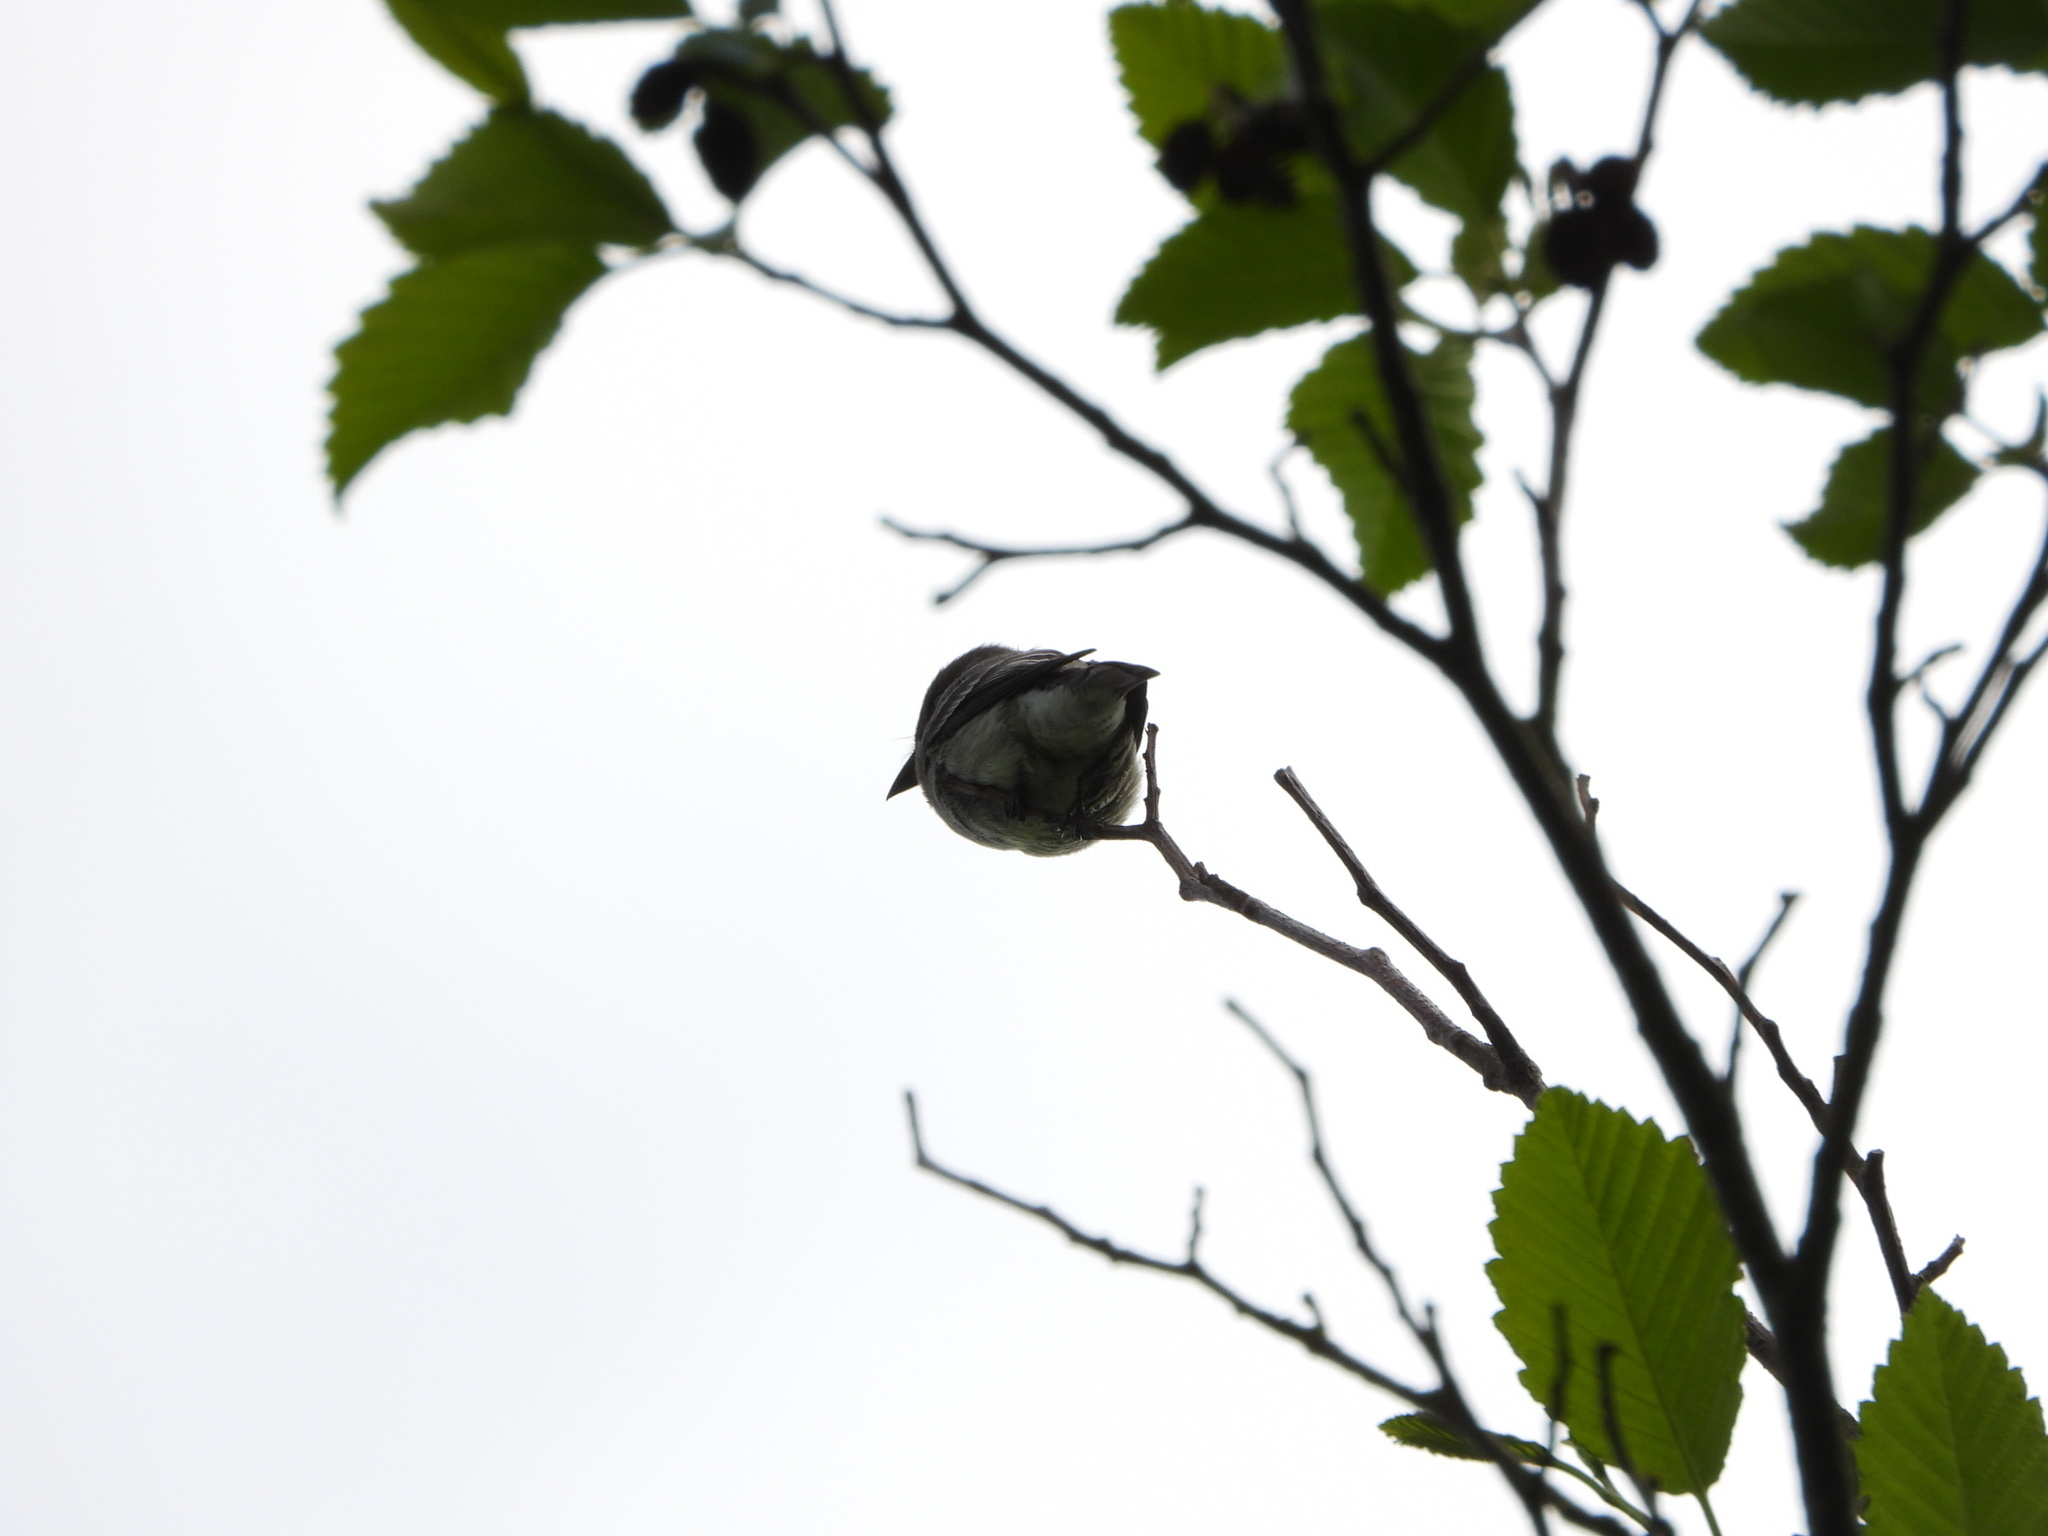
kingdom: Animalia
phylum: Chordata
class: Aves
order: Passeriformes
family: Tyrannidae
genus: Contopus
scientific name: Contopus sordidulus
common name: Western wood-pewee
